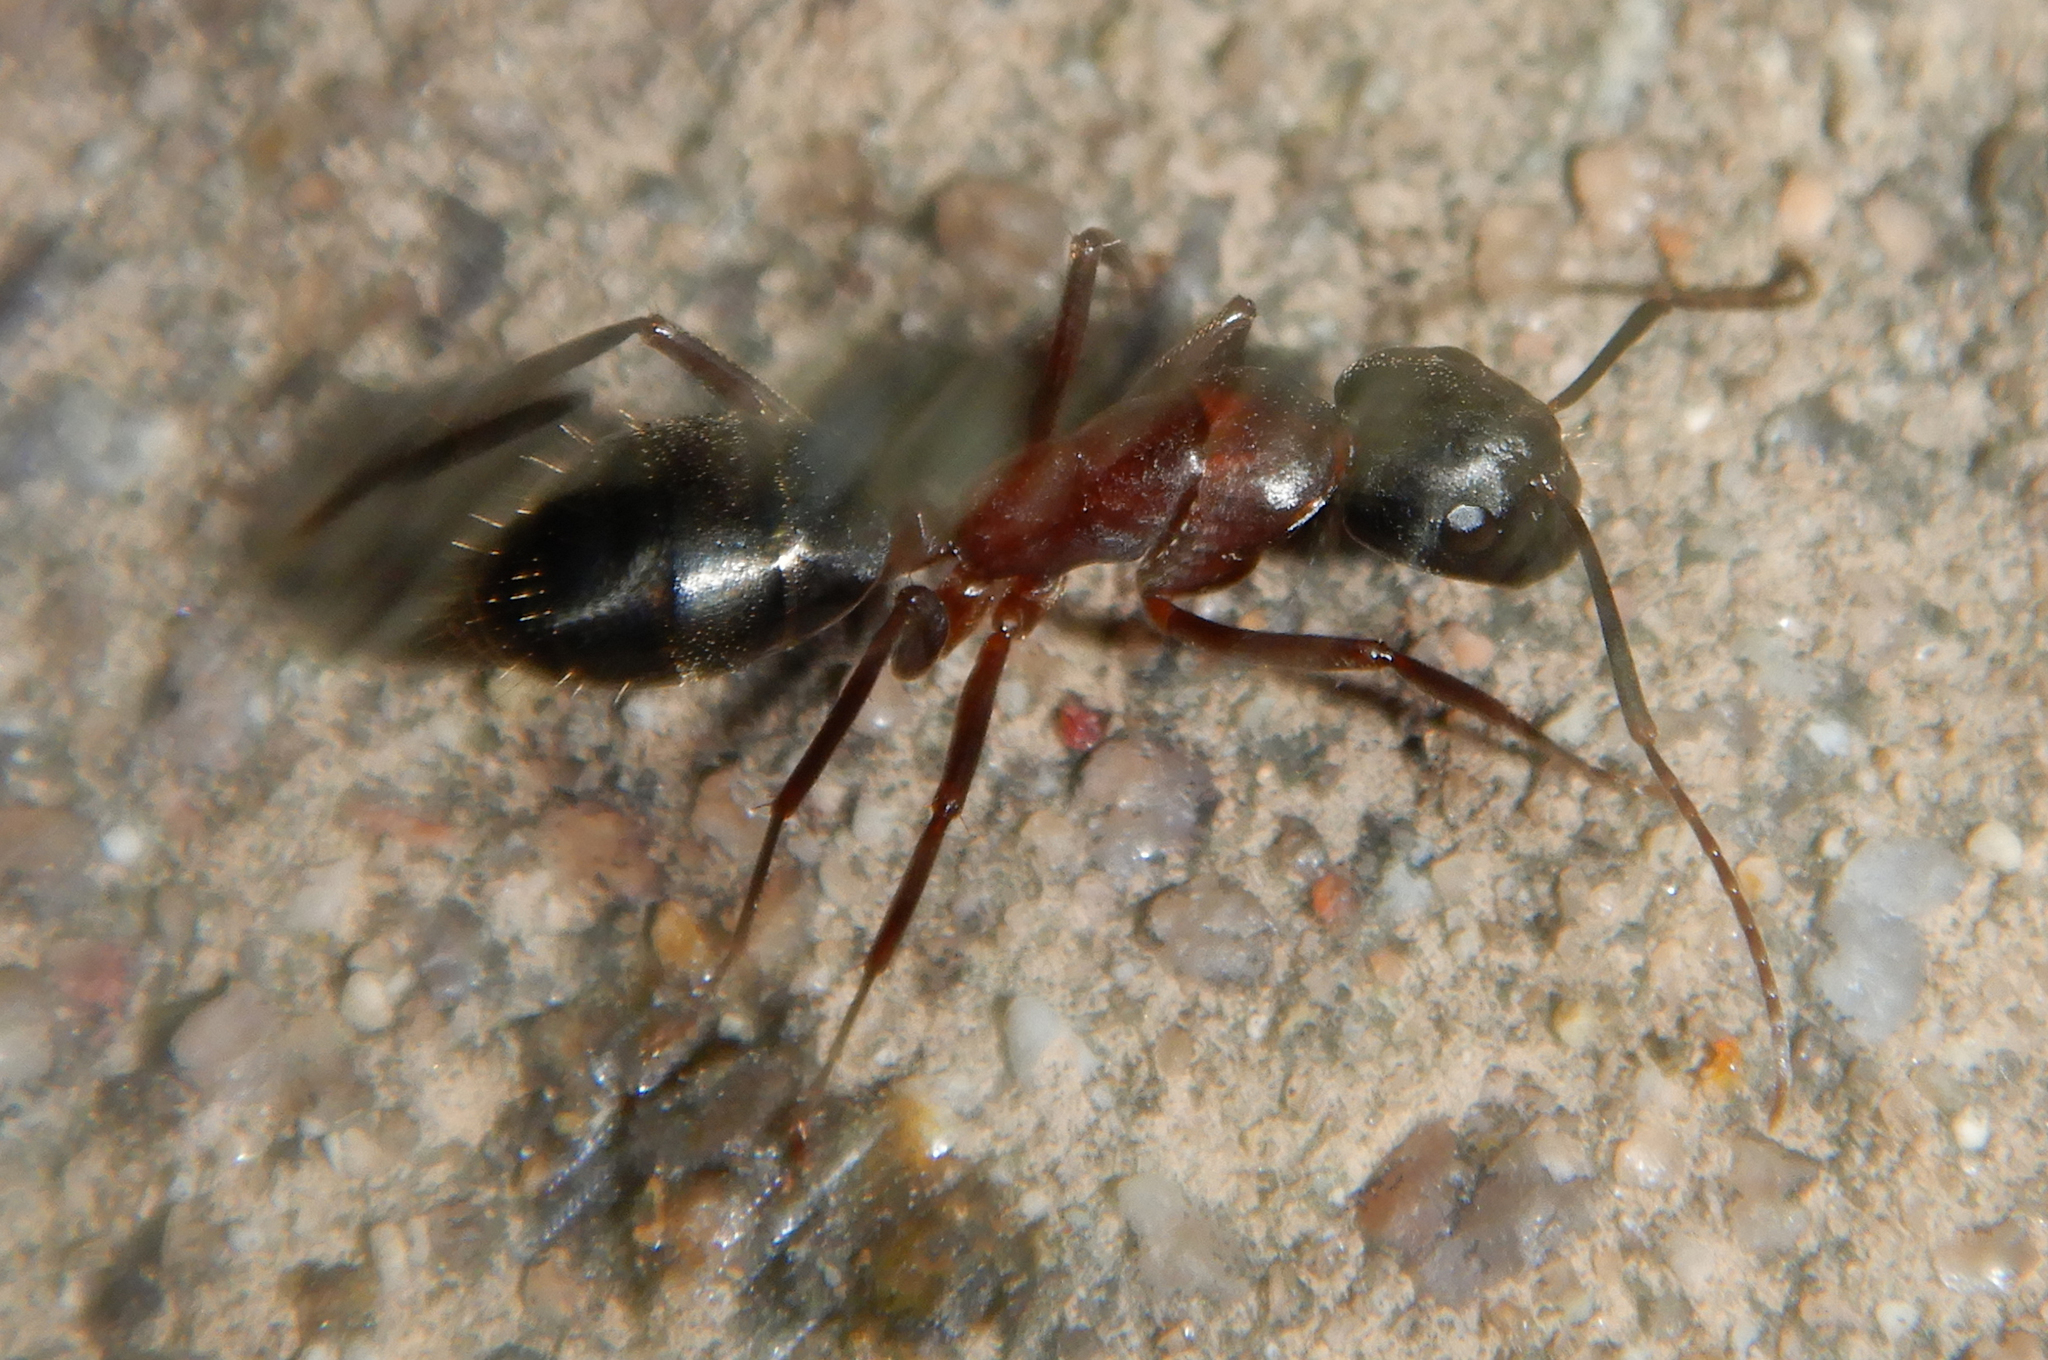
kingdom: Animalia
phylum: Arthropoda
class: Insecta
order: Hymenoptera
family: Formicidae
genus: Camponotus
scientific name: Camponotus vicinus
